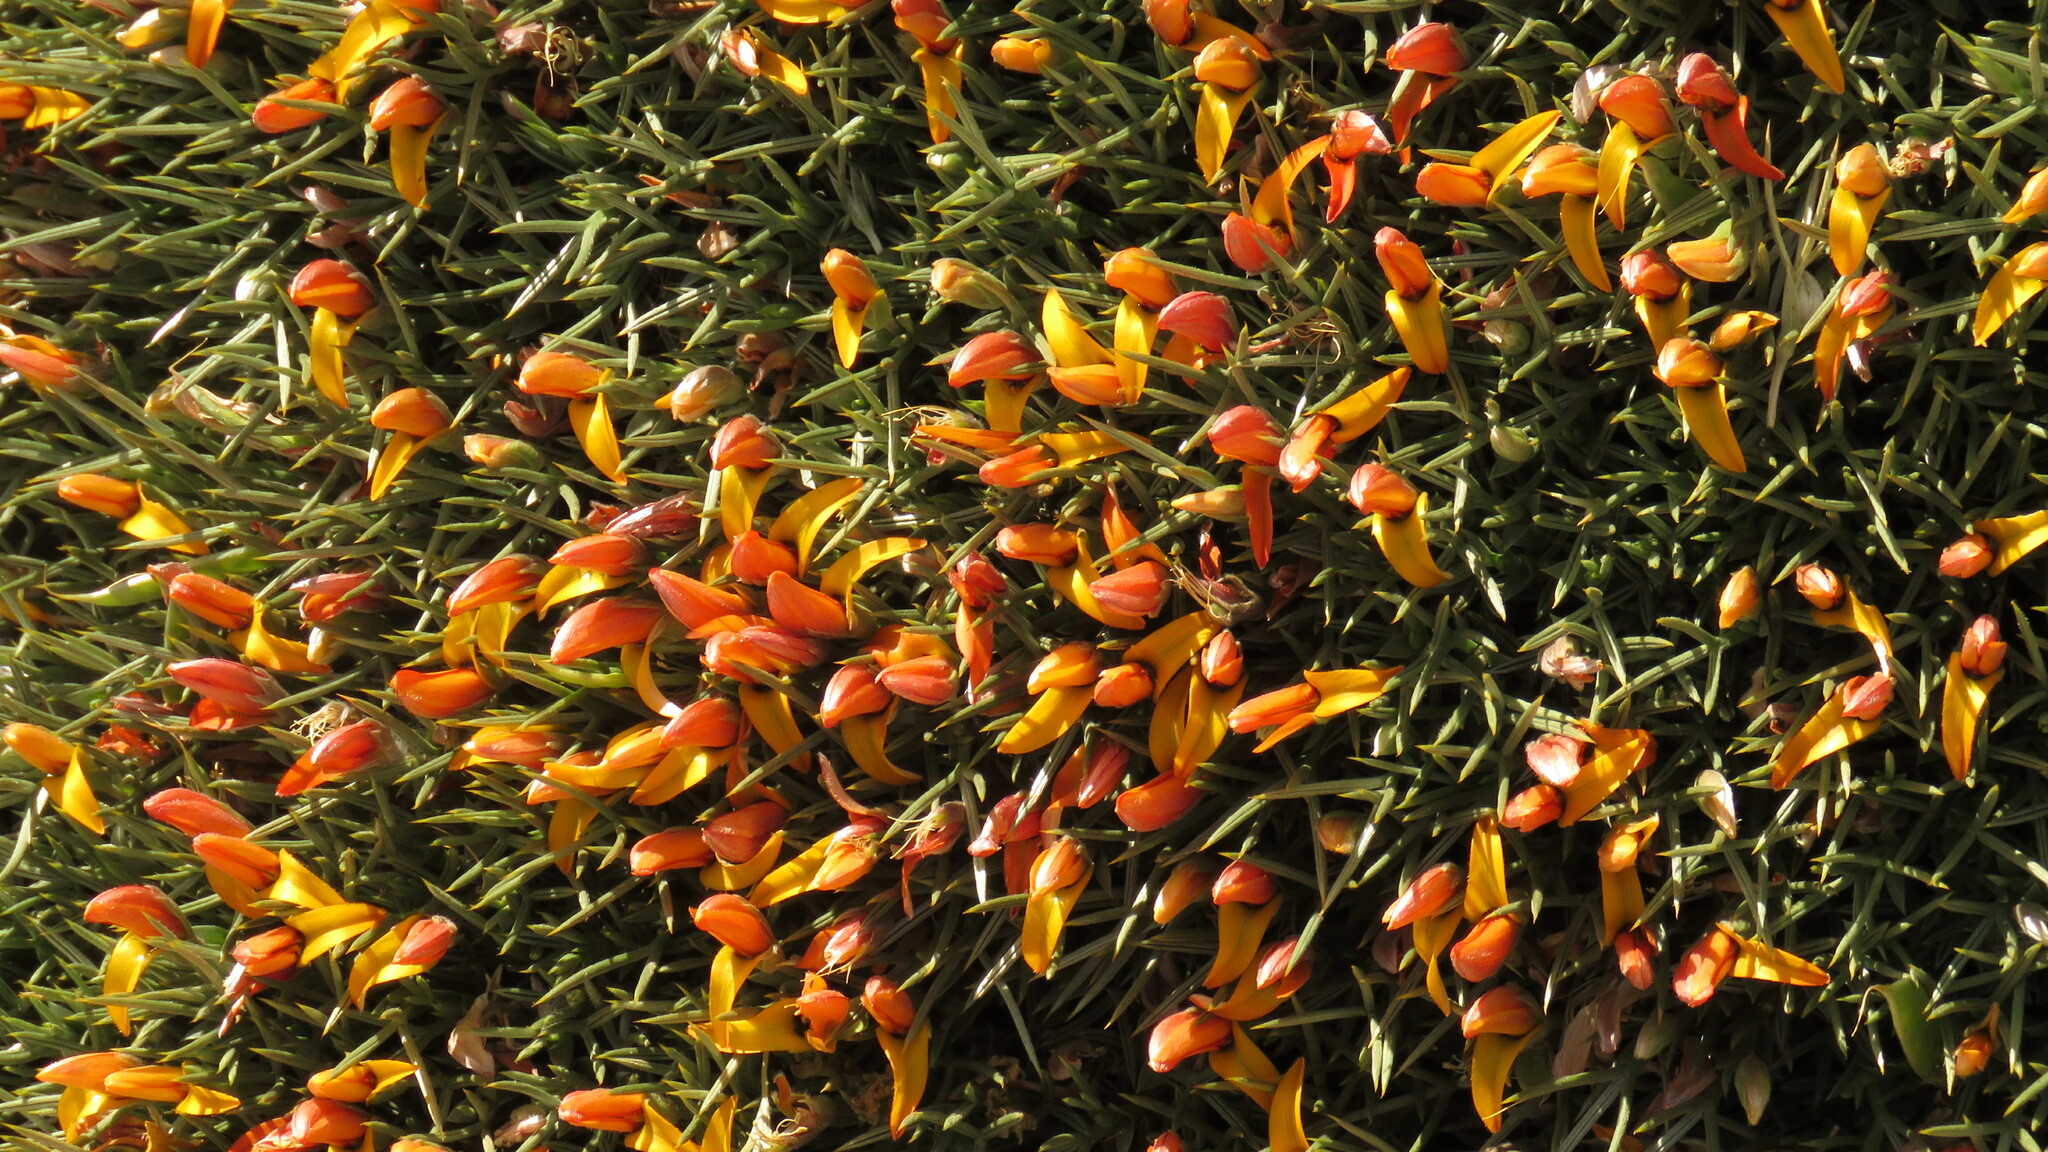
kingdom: Plantae
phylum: Tracheophyta
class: Magnoliopsida
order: Fabales
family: Fabaceae
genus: Anarthrophyllum
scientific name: Anarthrophyllum strigulipetalum
